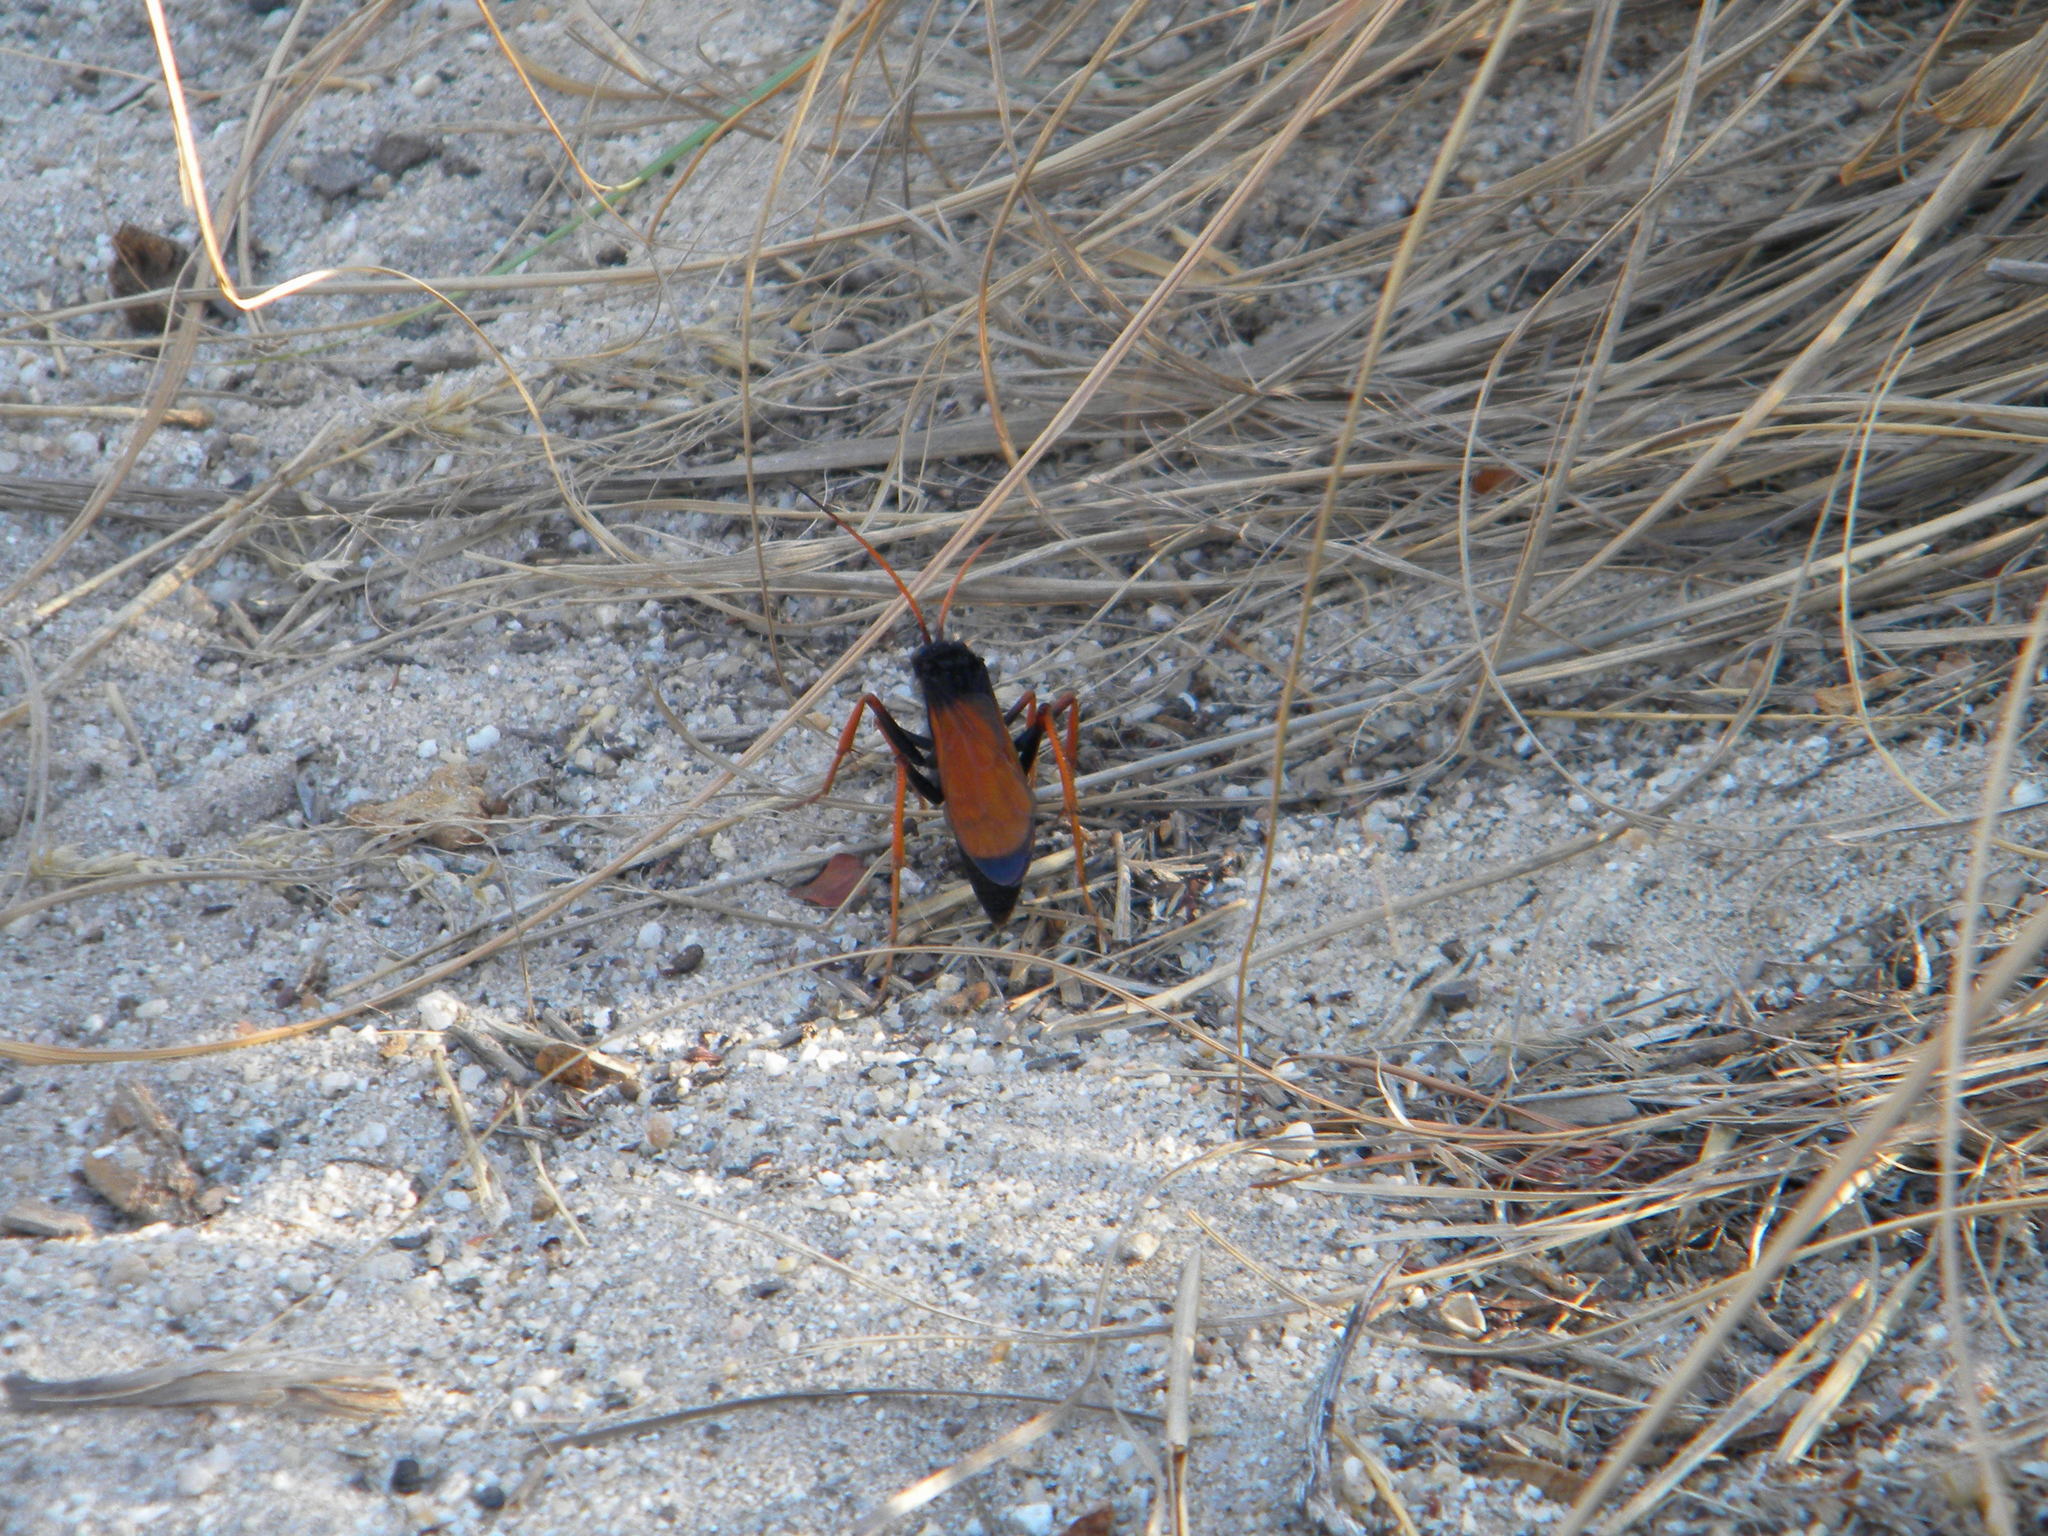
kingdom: Animalia
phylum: Arthropoda
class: Insecta
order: Hymenoptera
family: Pompilidae
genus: Hemipepsis
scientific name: Hemipepsis capensis
